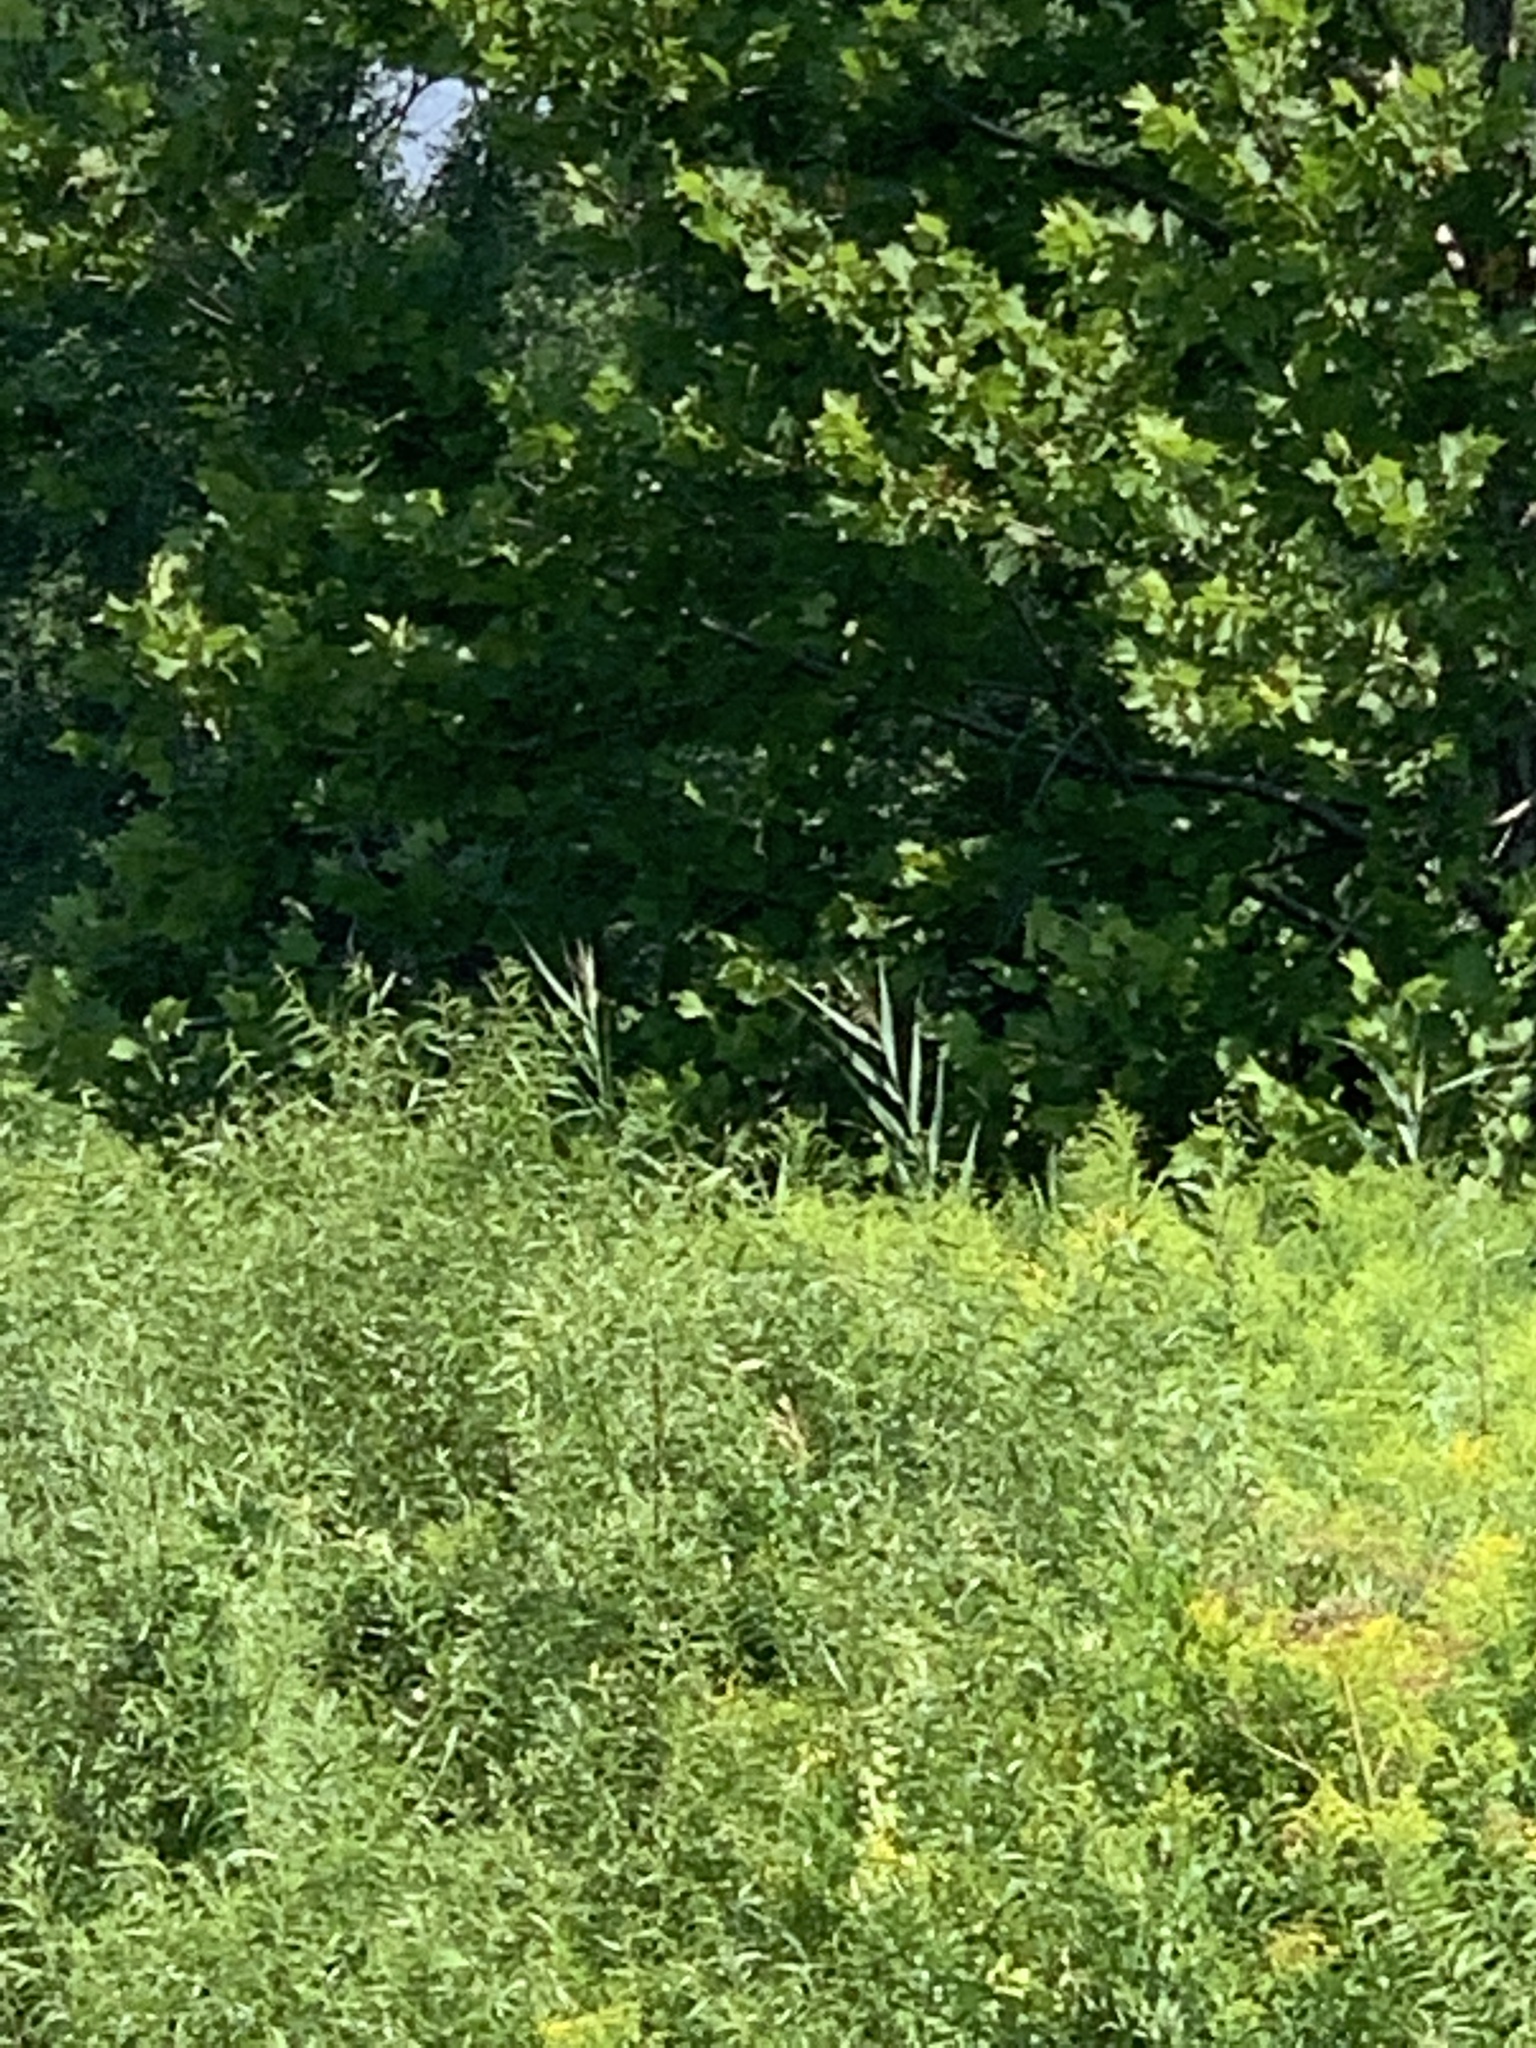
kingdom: Plantae
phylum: Tracheophyta
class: Liliopsida
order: Poales
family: Poaceae
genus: Phragmites
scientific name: Phragmites australis
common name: Common reed
